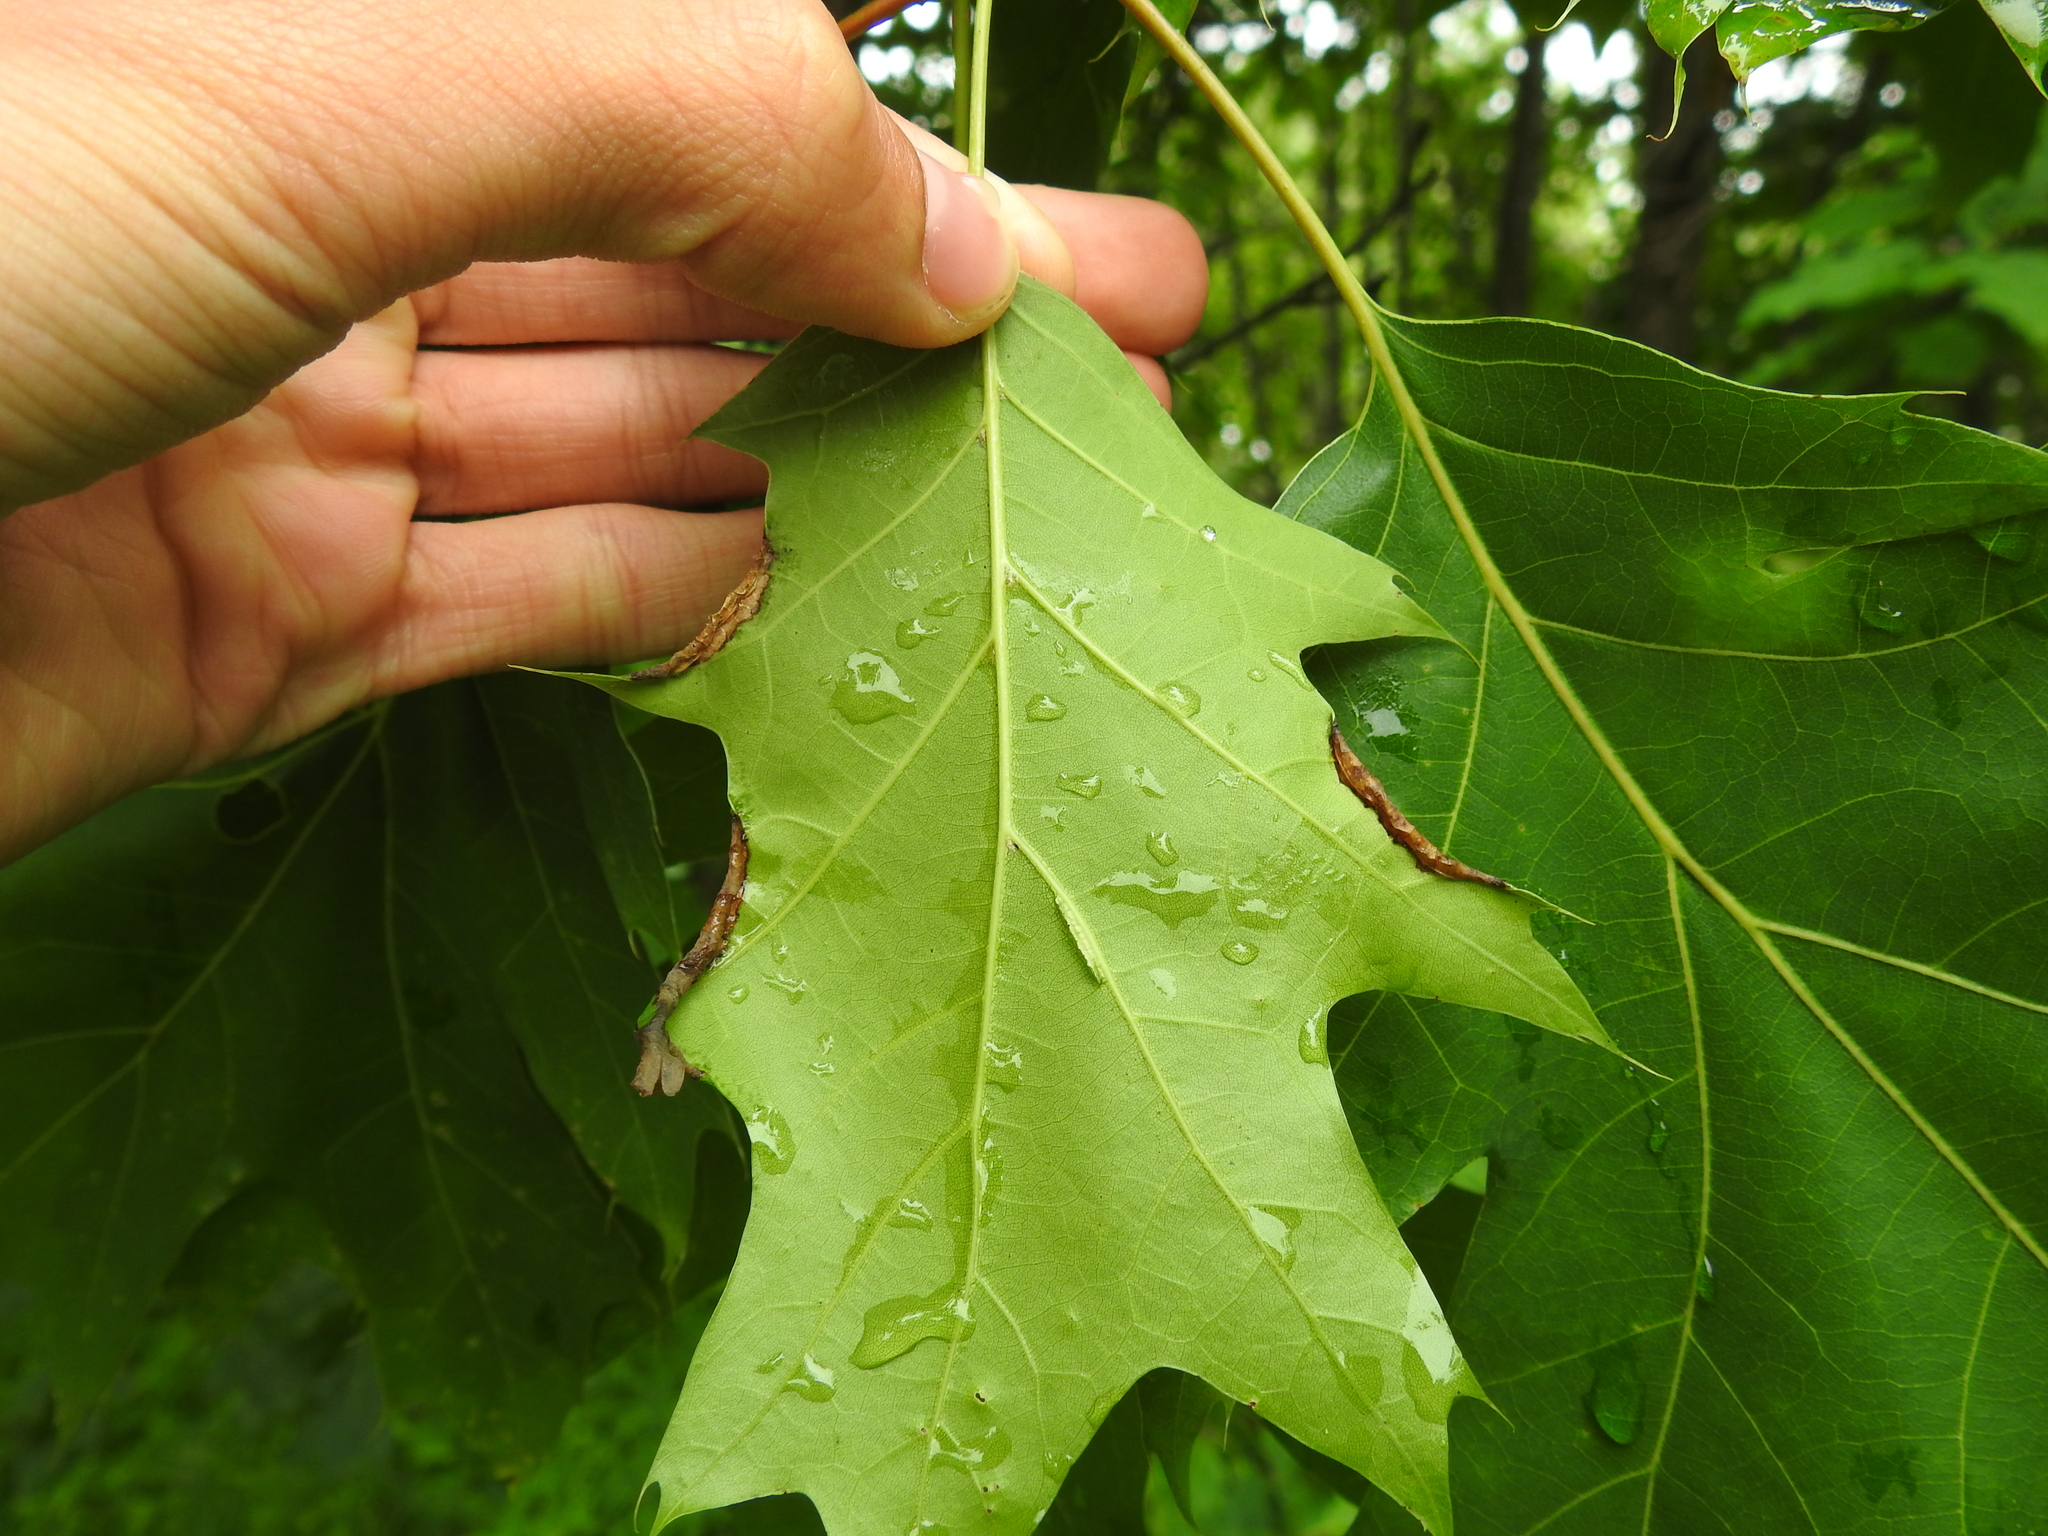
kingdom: Animalia
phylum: Arthropoda
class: Insecta
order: Diptera
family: Cecidomyiidae
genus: Macrodiplosis
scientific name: Macrodiplosis erubescens
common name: Marginal leaf fold gall midge
